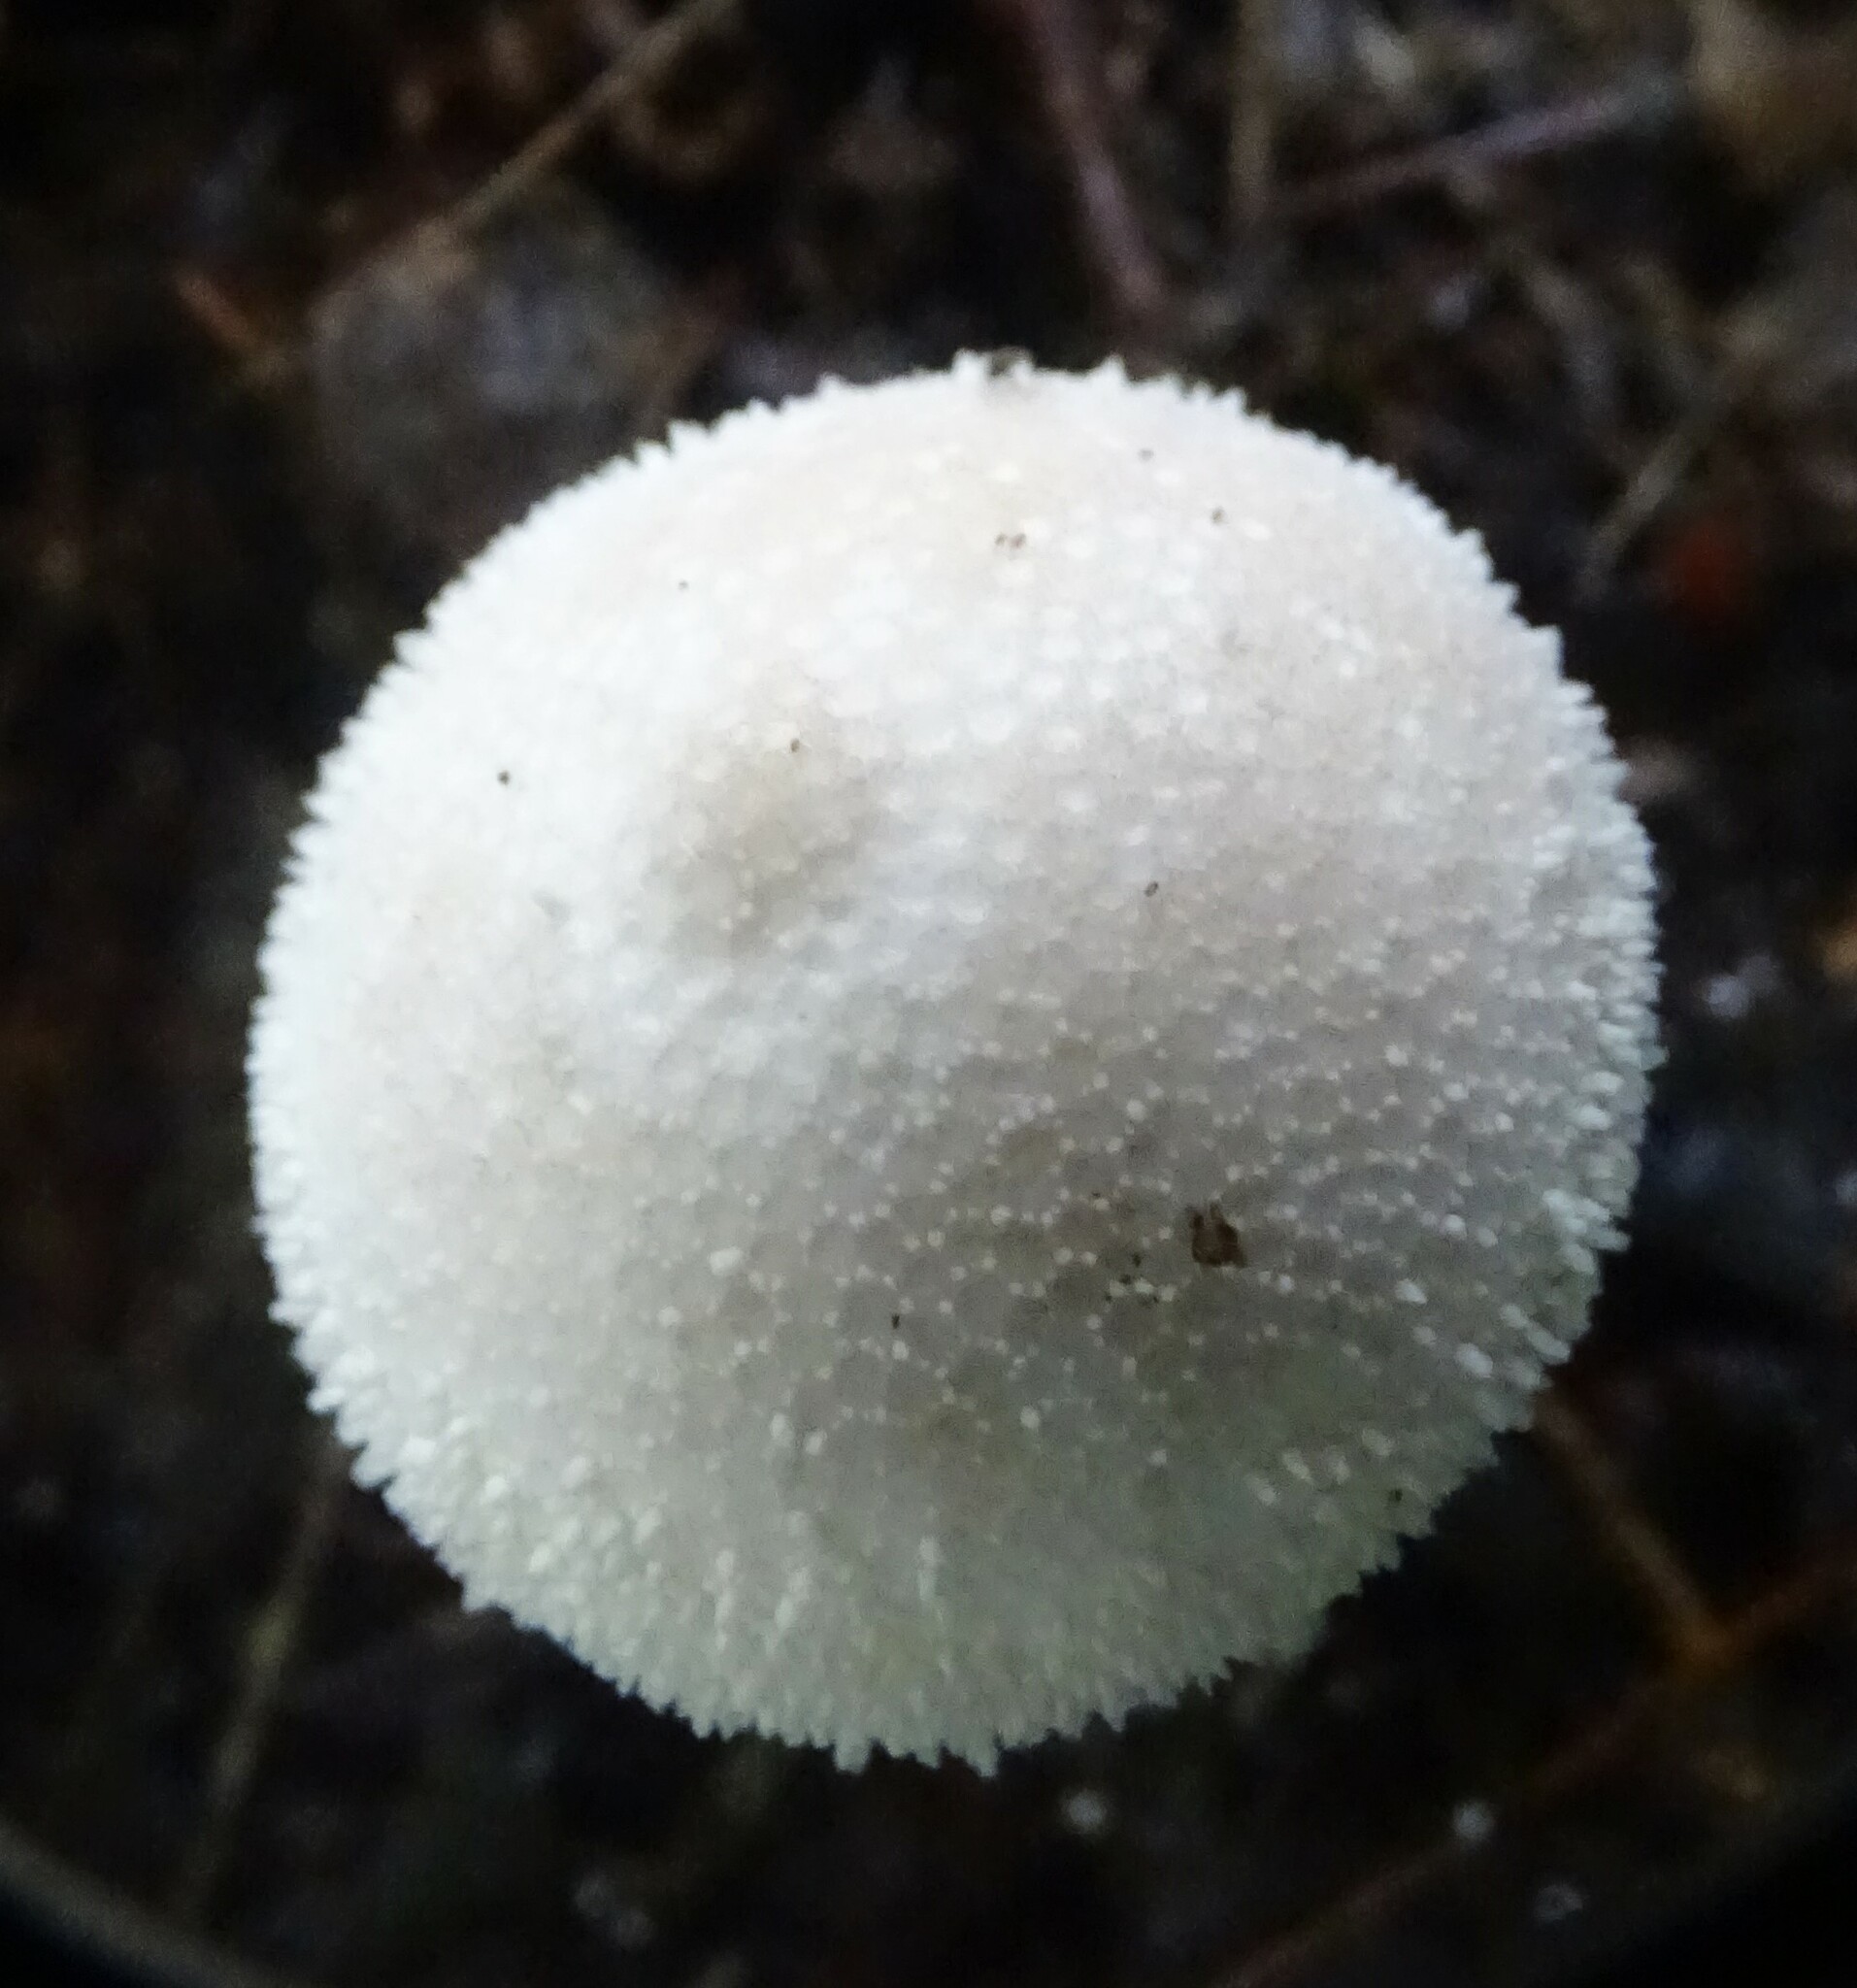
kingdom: Fungi
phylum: Basidiomycota
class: Agaricomycetes
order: Agaricales
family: Lycoperdaceae
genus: Lycoperdon
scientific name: Lycoperdon perlatum
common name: Common puffball
